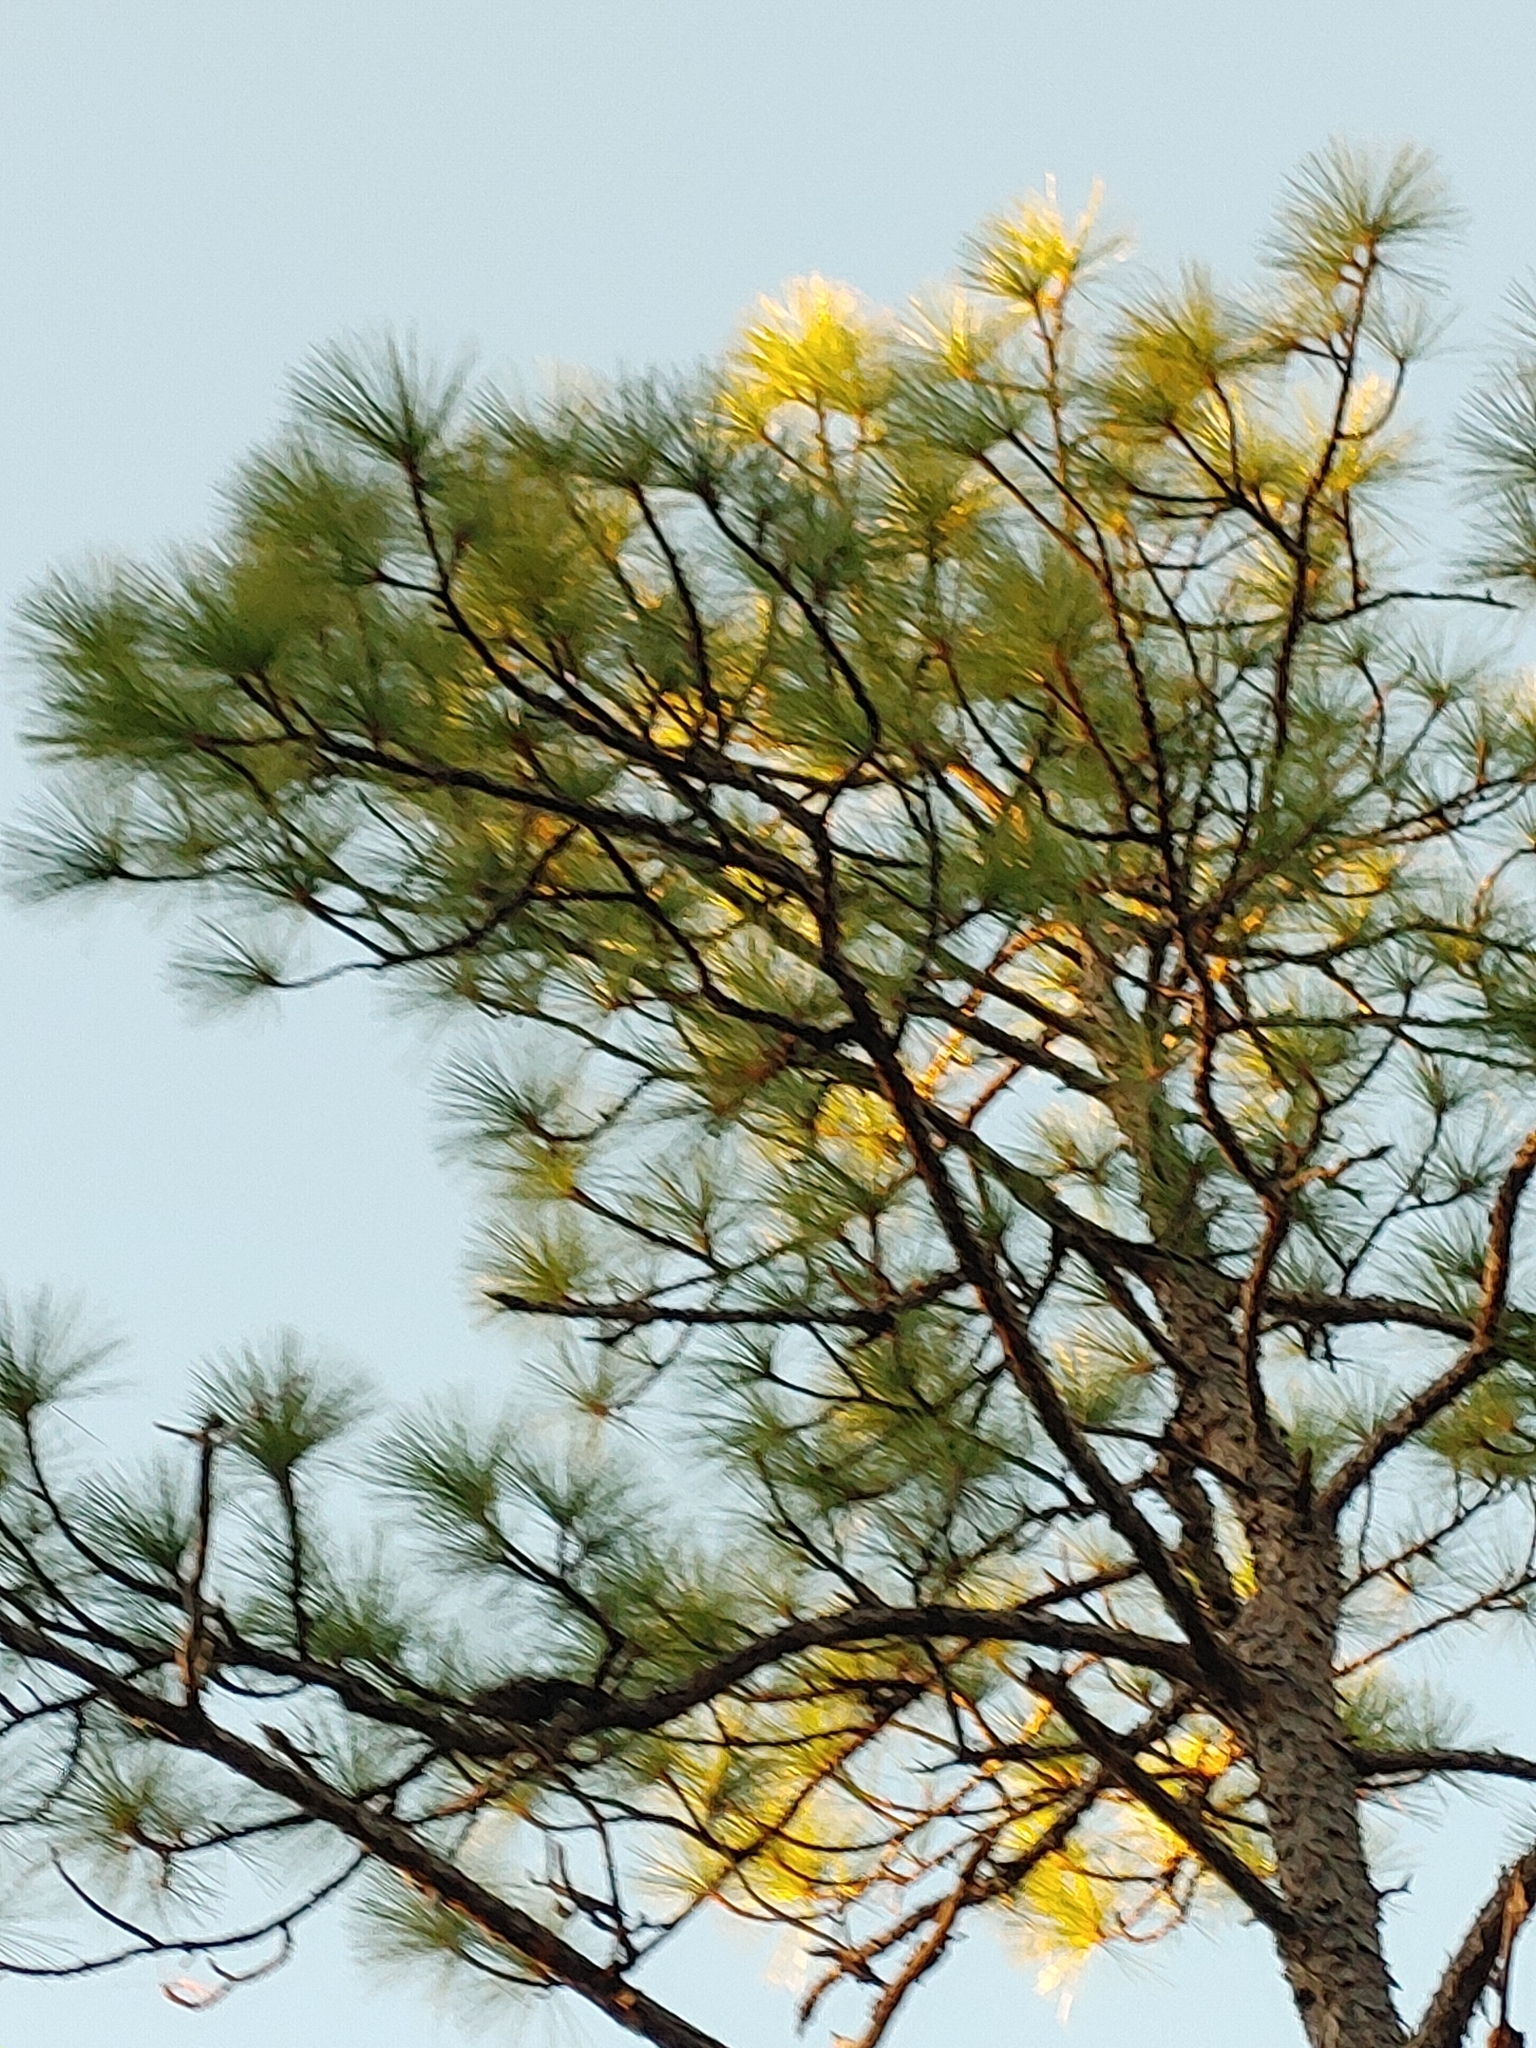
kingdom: Plantae
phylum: Tracheophyta
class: Pinopsida
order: Pinales
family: Pinaceae
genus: Pinus
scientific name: Pinus palustris
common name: Longleaf pine
